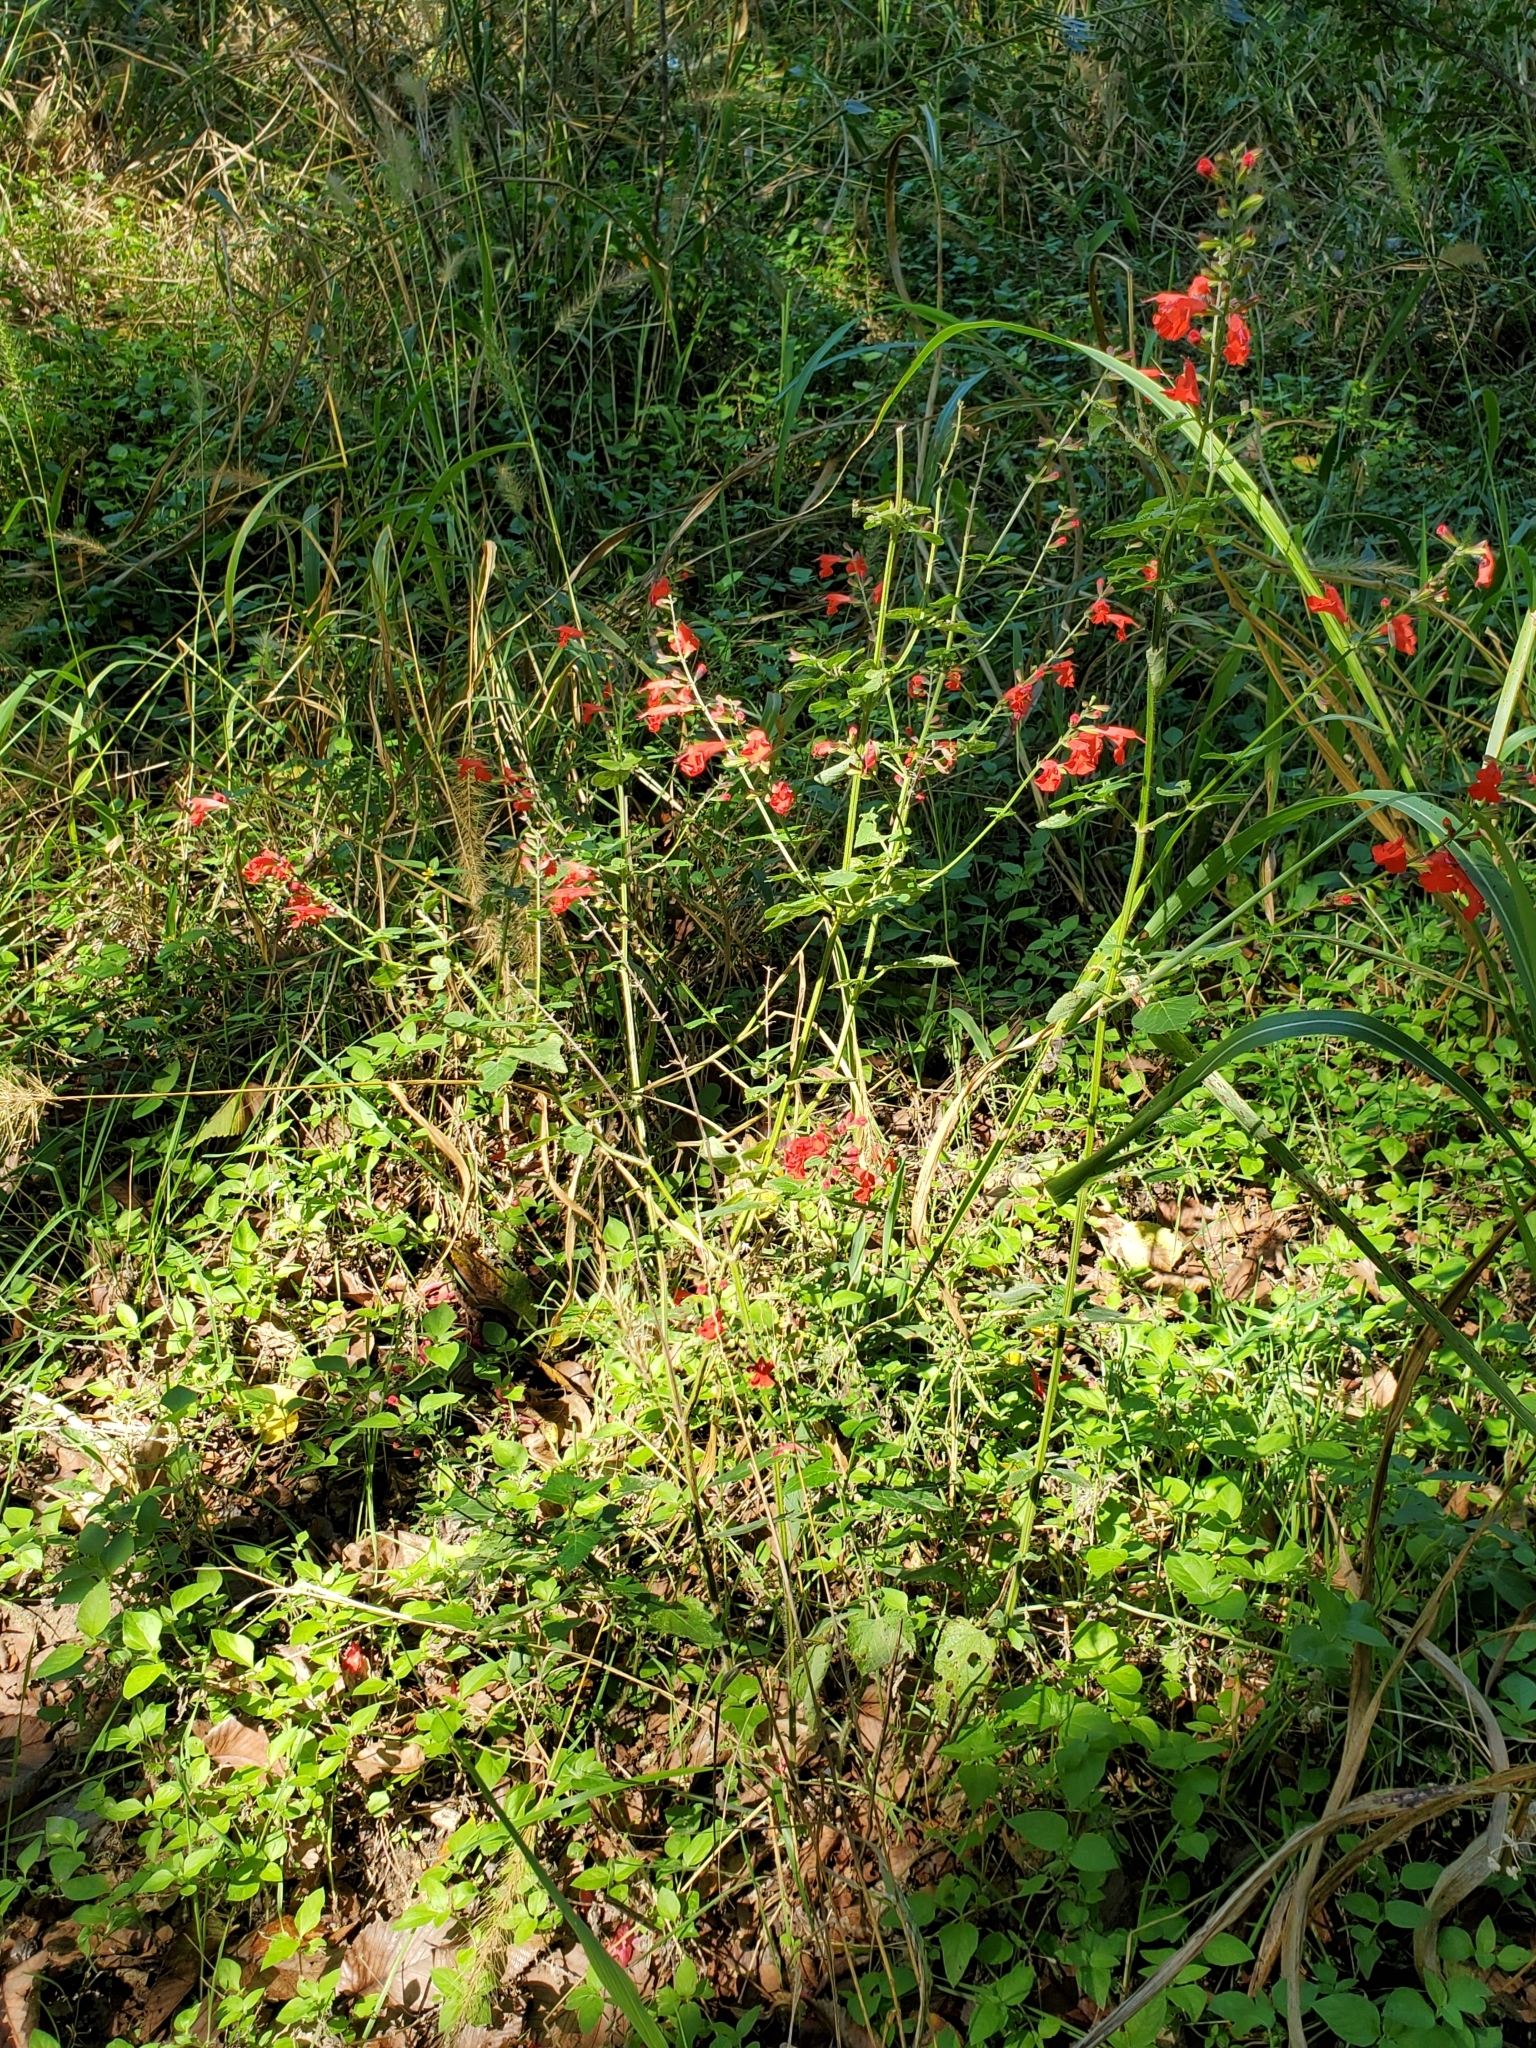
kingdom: Plantae
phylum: Tracheophyta
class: Magnoliopsida
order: Lamiales
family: Lamiaceae
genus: Salvia
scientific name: Salvia coccinea
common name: Blood sage
